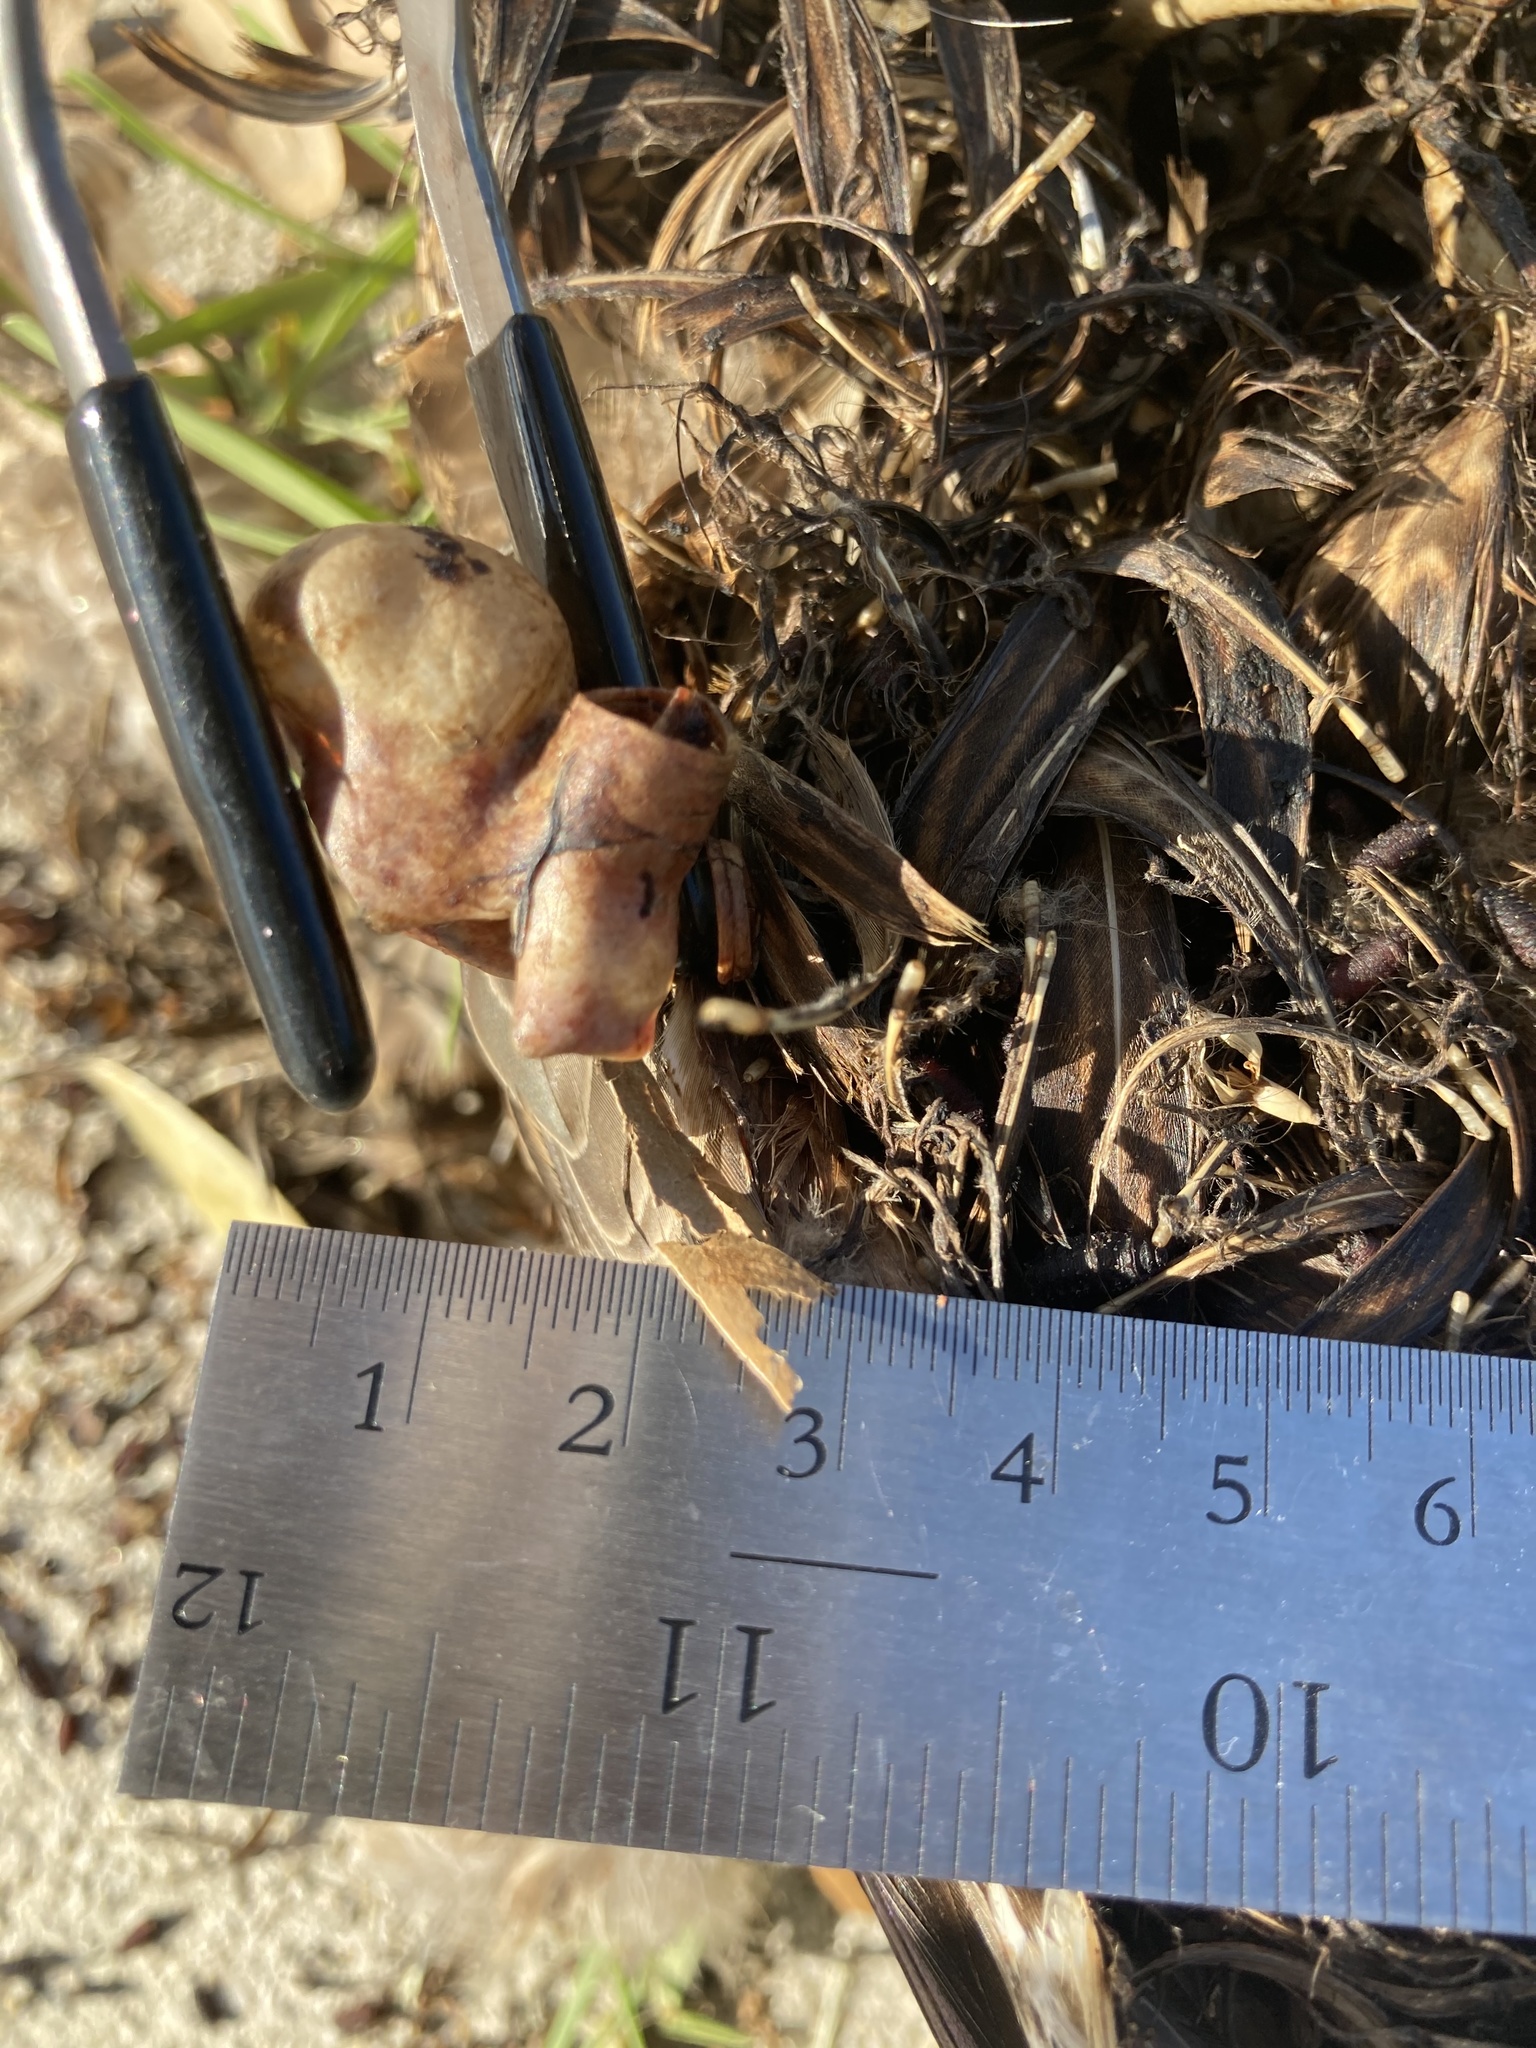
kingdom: Animalia
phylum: Chordata
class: Aves
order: Anseriformes
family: Anatidae
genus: Anas
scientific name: Anas
